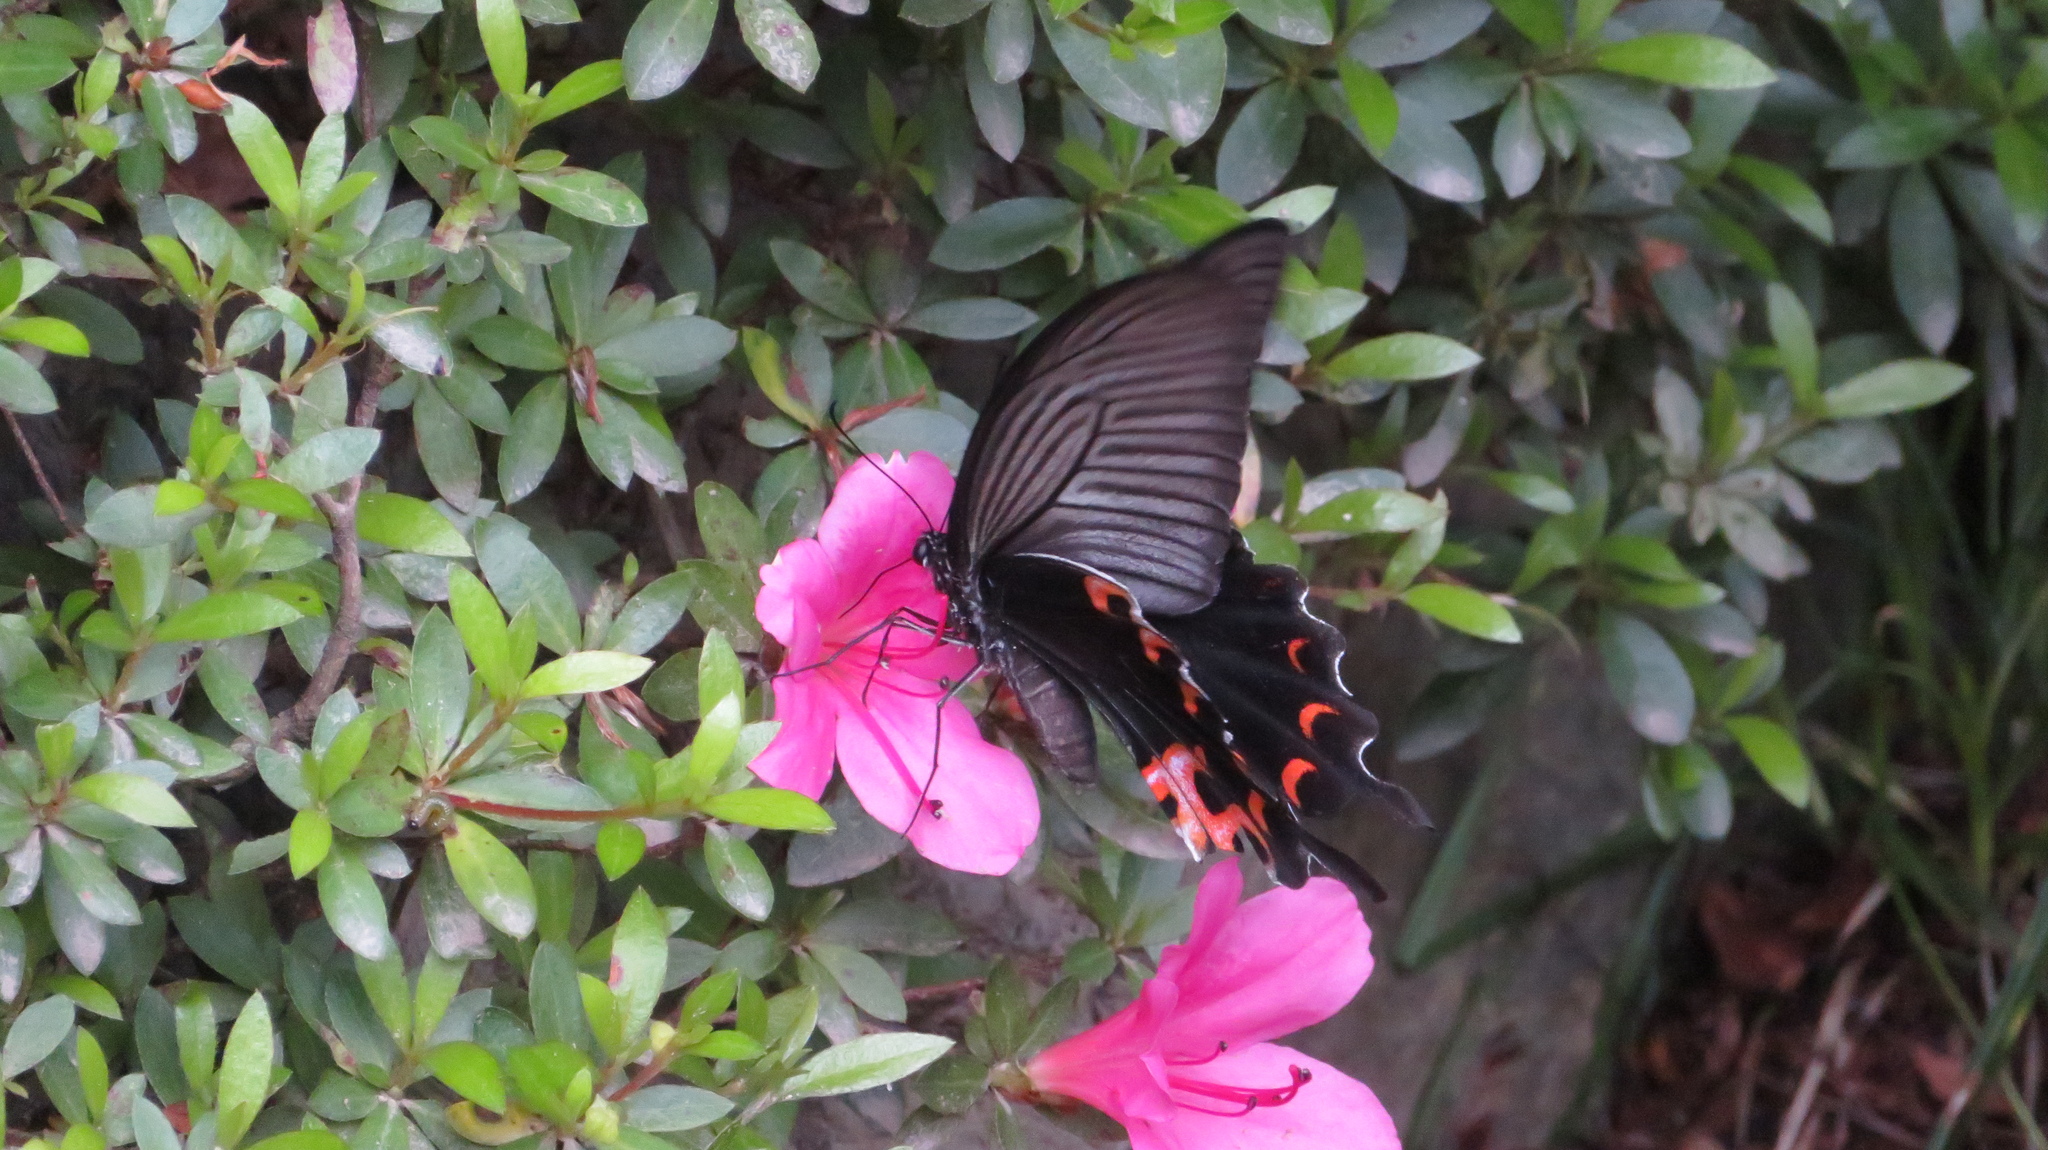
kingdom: Animalia
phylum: Arthropoda
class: Insecta
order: Lepidoptera
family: Papilionidae
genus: Papilio
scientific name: Papilio demetrius
